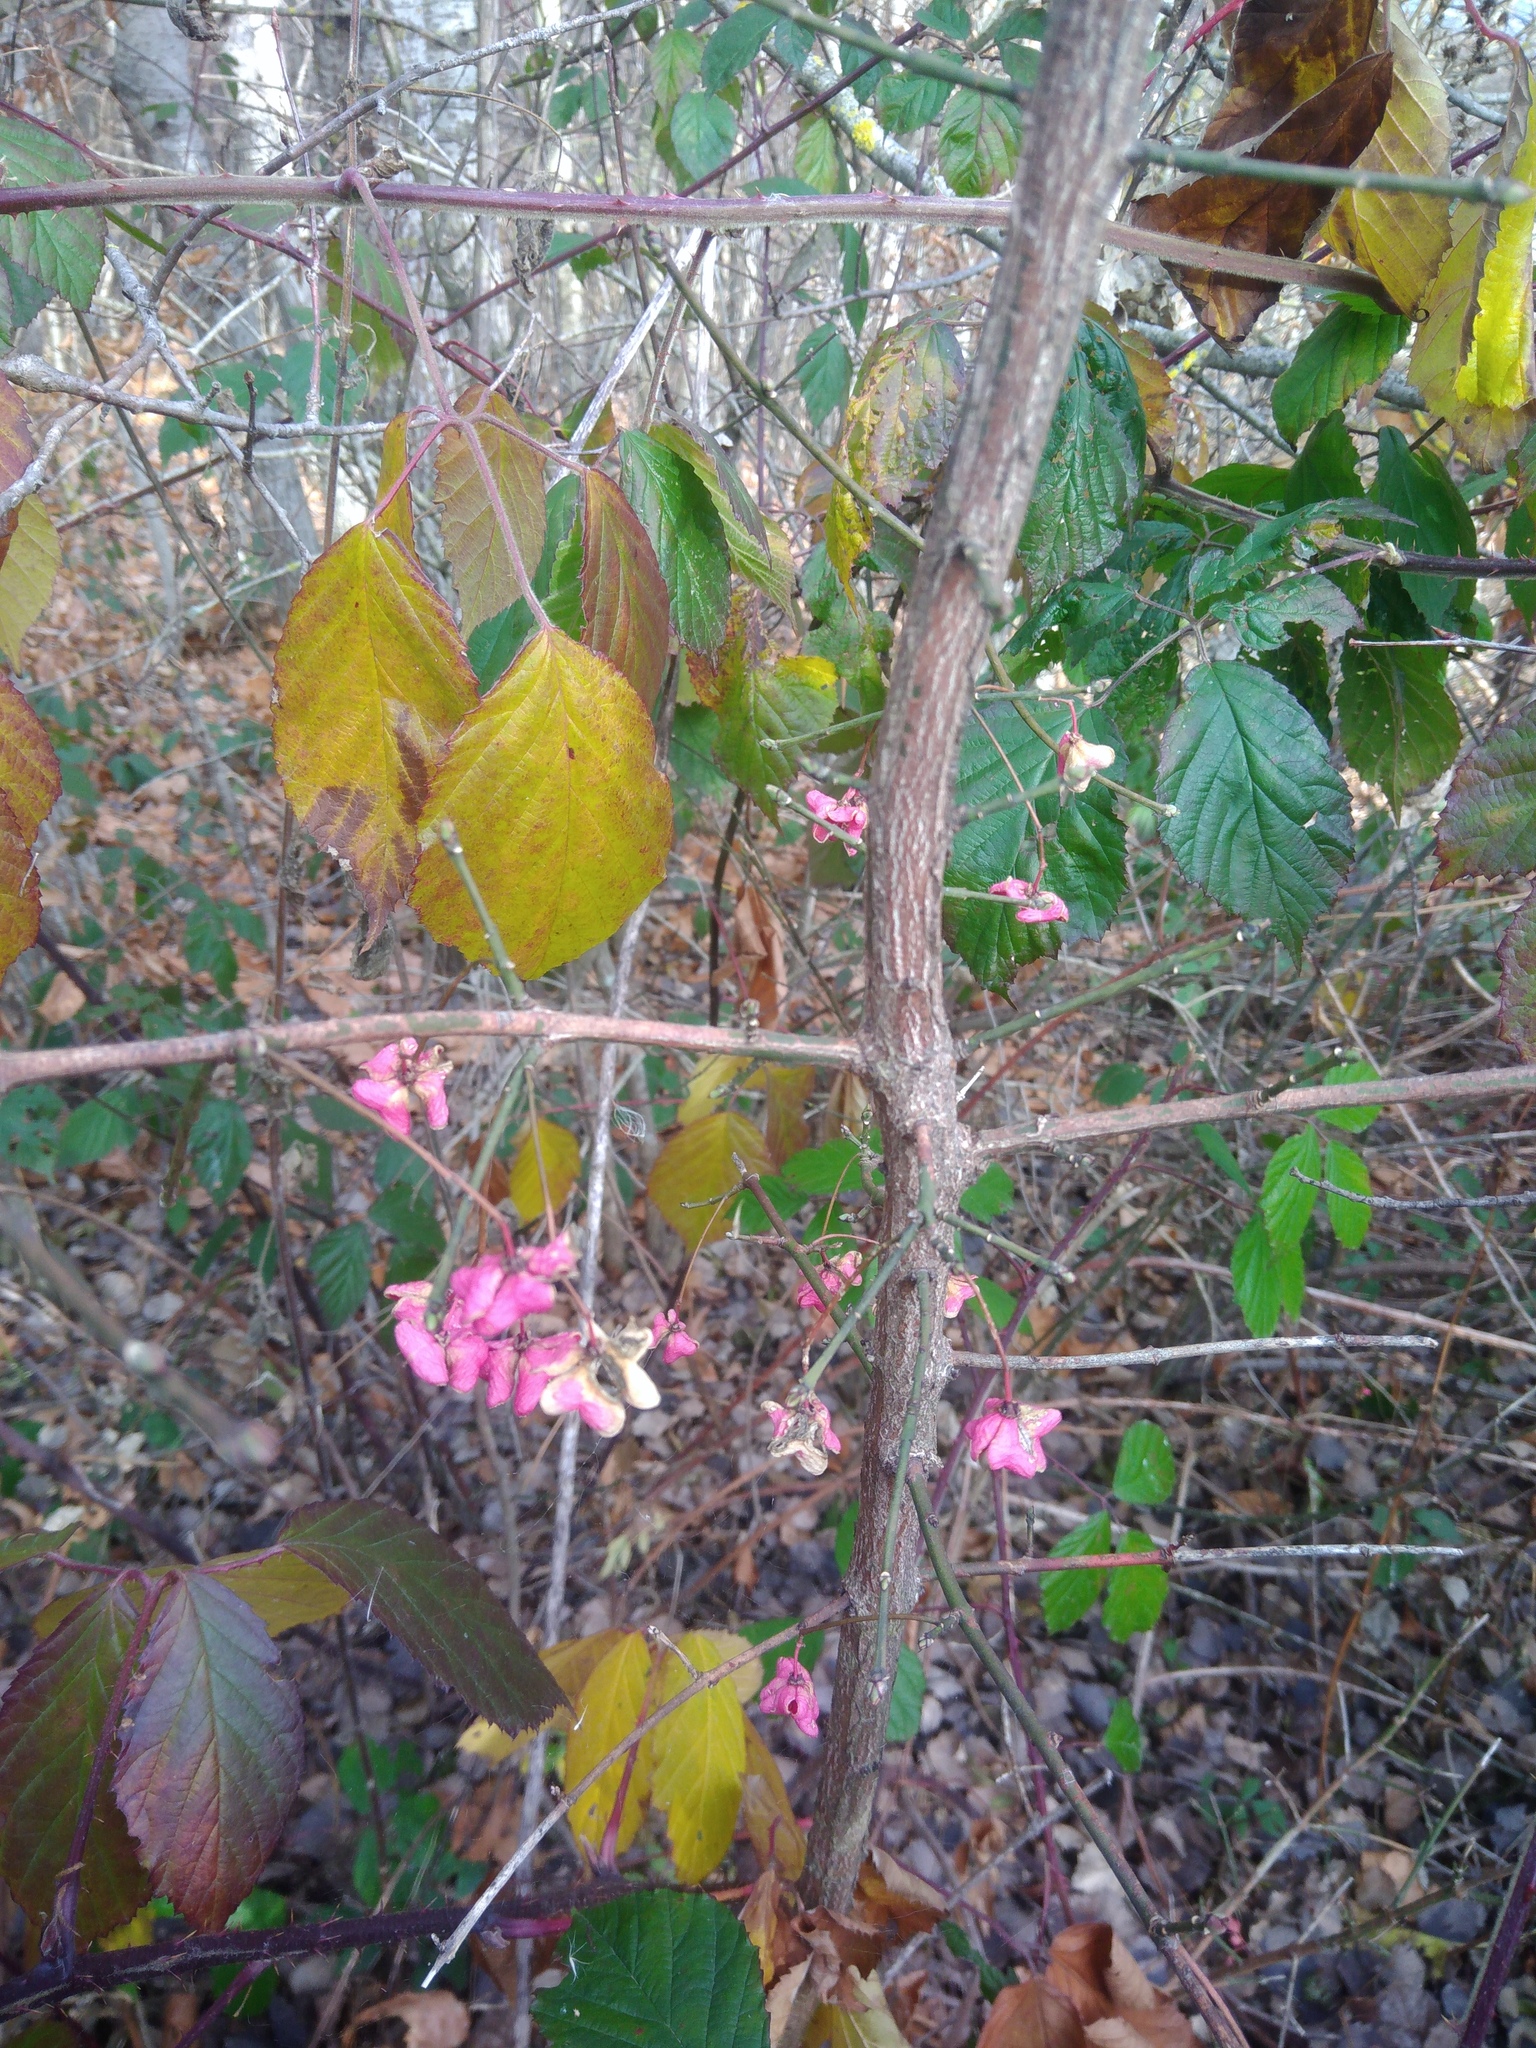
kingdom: Plantae
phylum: Tracheophyta
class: Magnoliopsida
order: Celastrales
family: Celastraceae
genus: Euonymus
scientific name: Euonymus europaeus
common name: Spindle
